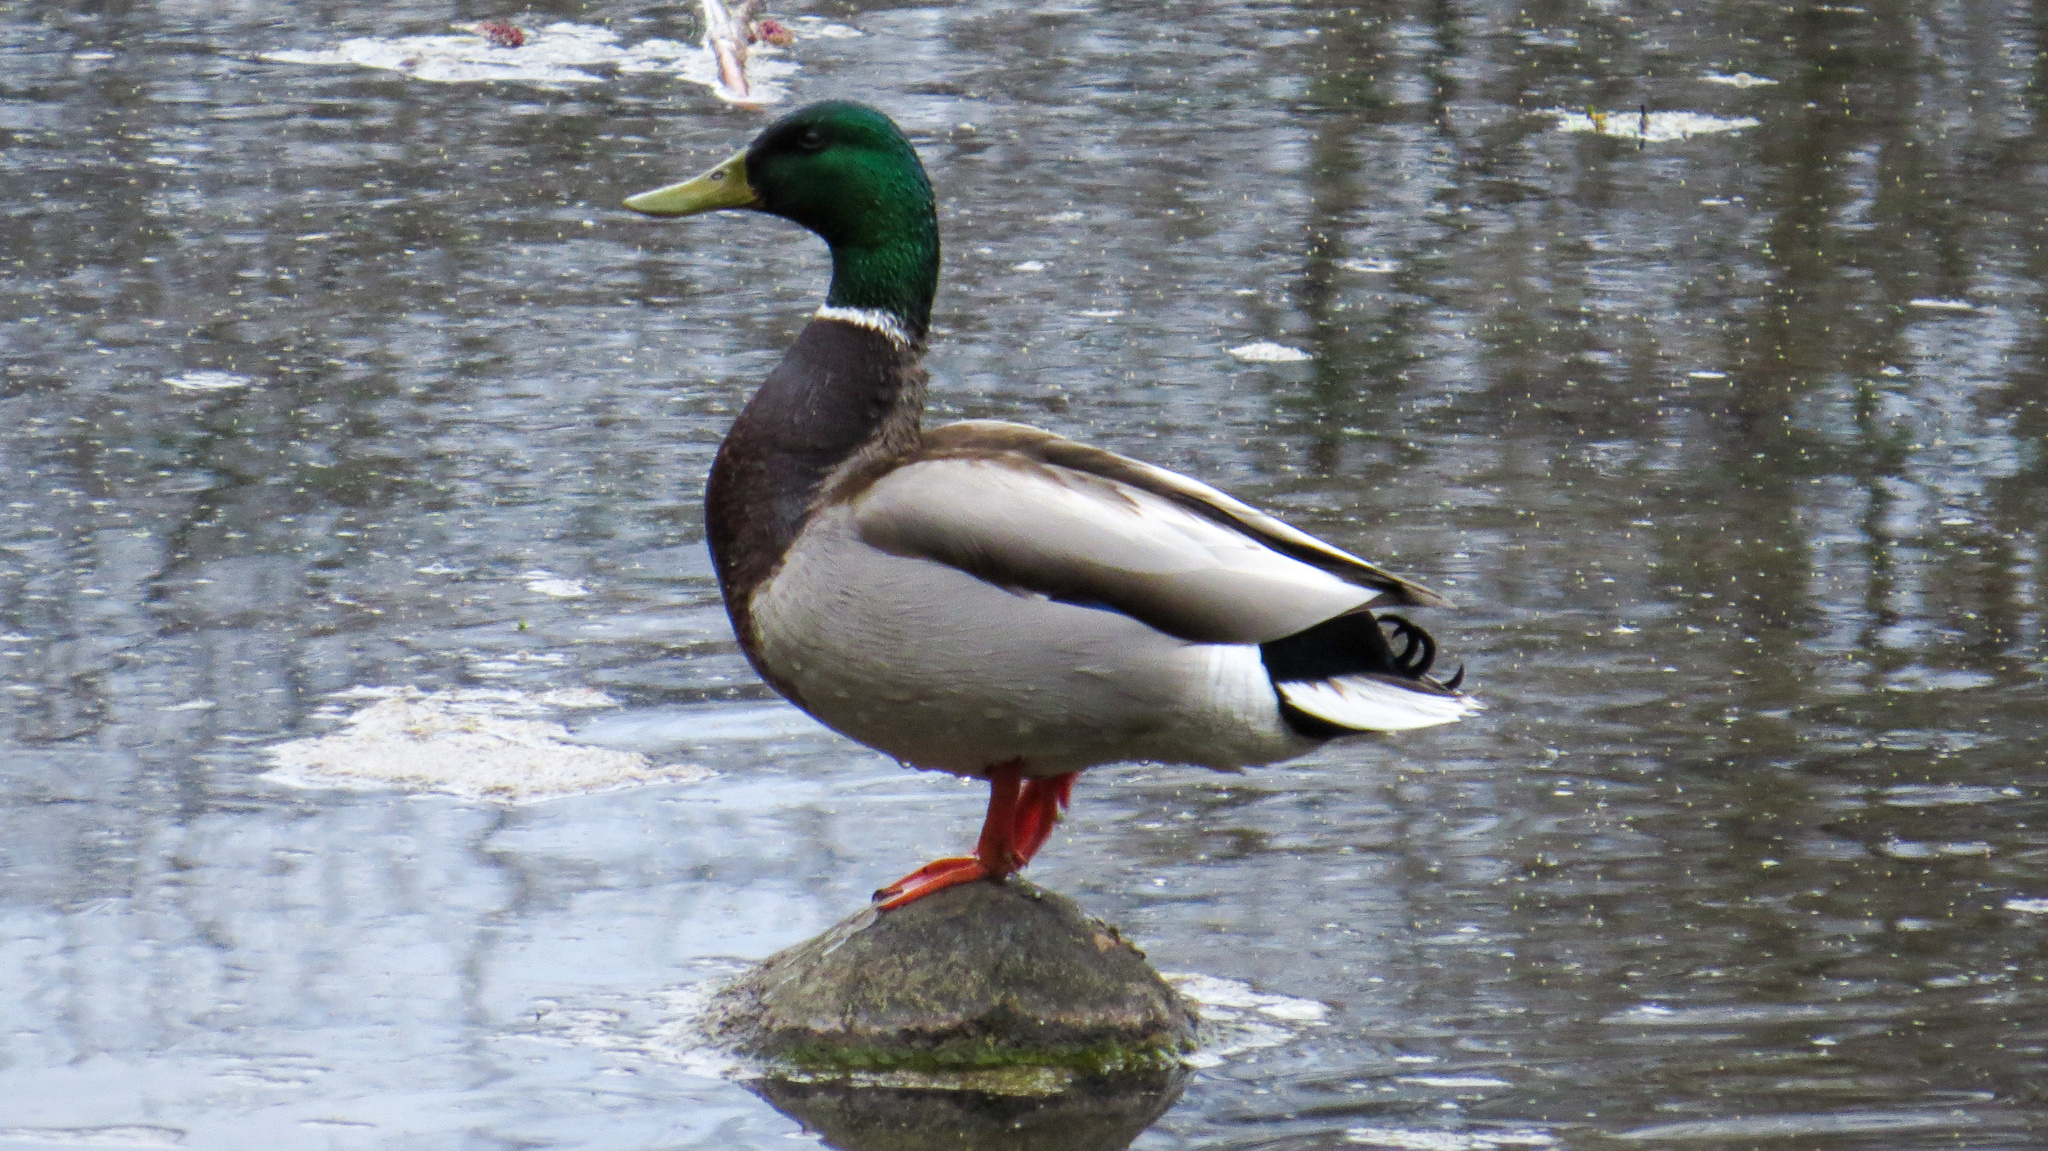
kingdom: Animalia
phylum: Chordata
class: Aves
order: Anseriformes
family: Anatidae
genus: Anas
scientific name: Anas platyrhynchos
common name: Mallard
